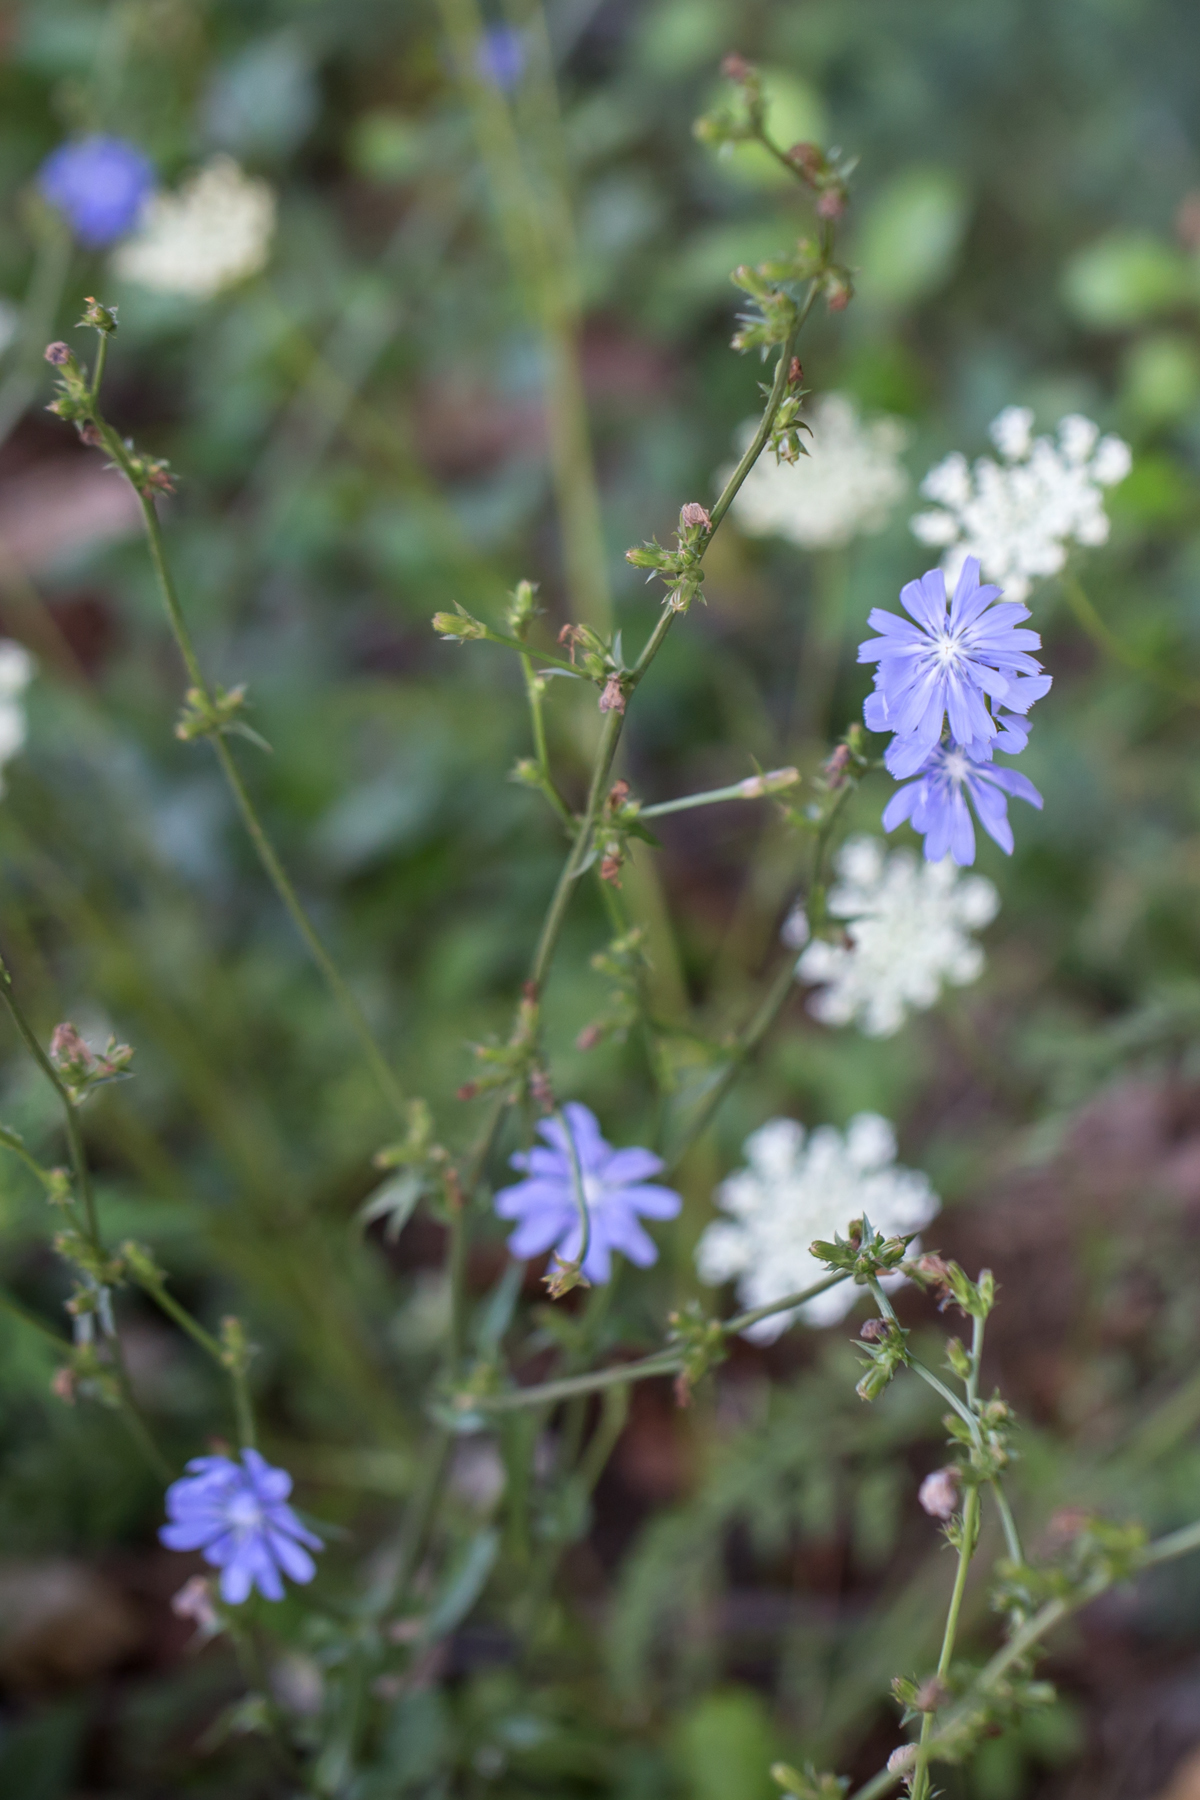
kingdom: Plantae
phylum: Tracheophyta
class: Magnoliopsida
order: Asterales
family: Asteraceae
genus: Cichorium
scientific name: Cichorium intybus
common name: Chicory
